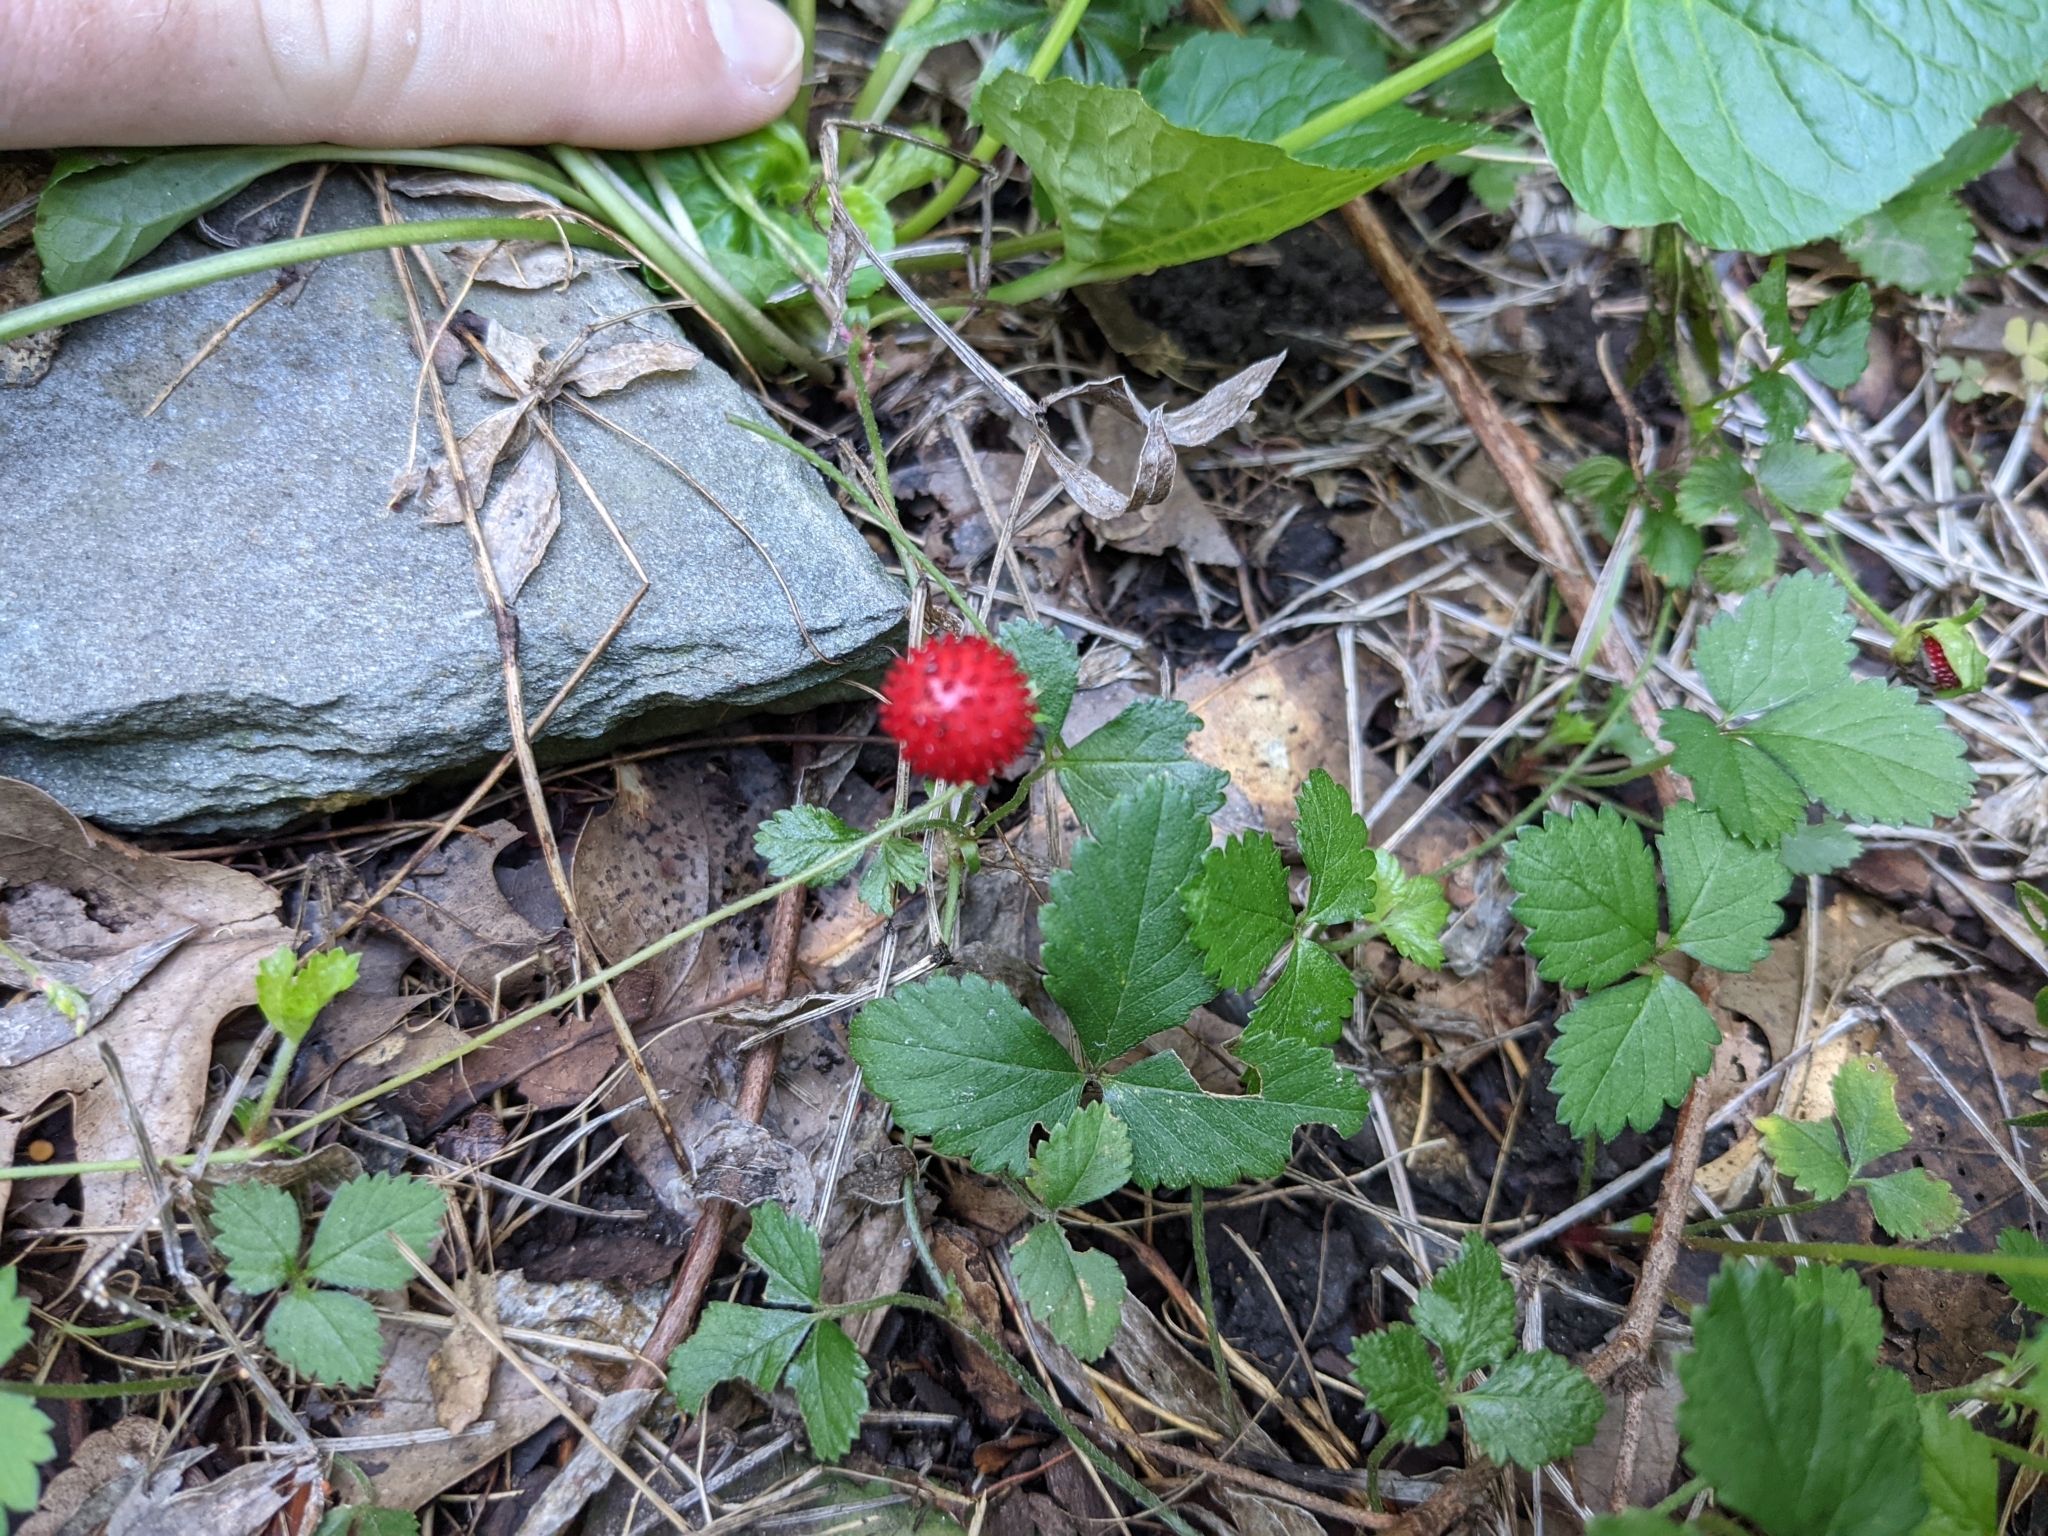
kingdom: Plantae
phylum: Tracheophyta
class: Magnoliopsida
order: Rosales
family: Rosaceae
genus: Potentilla
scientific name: Potentilla indica
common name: Yellow-flowered strawberry
